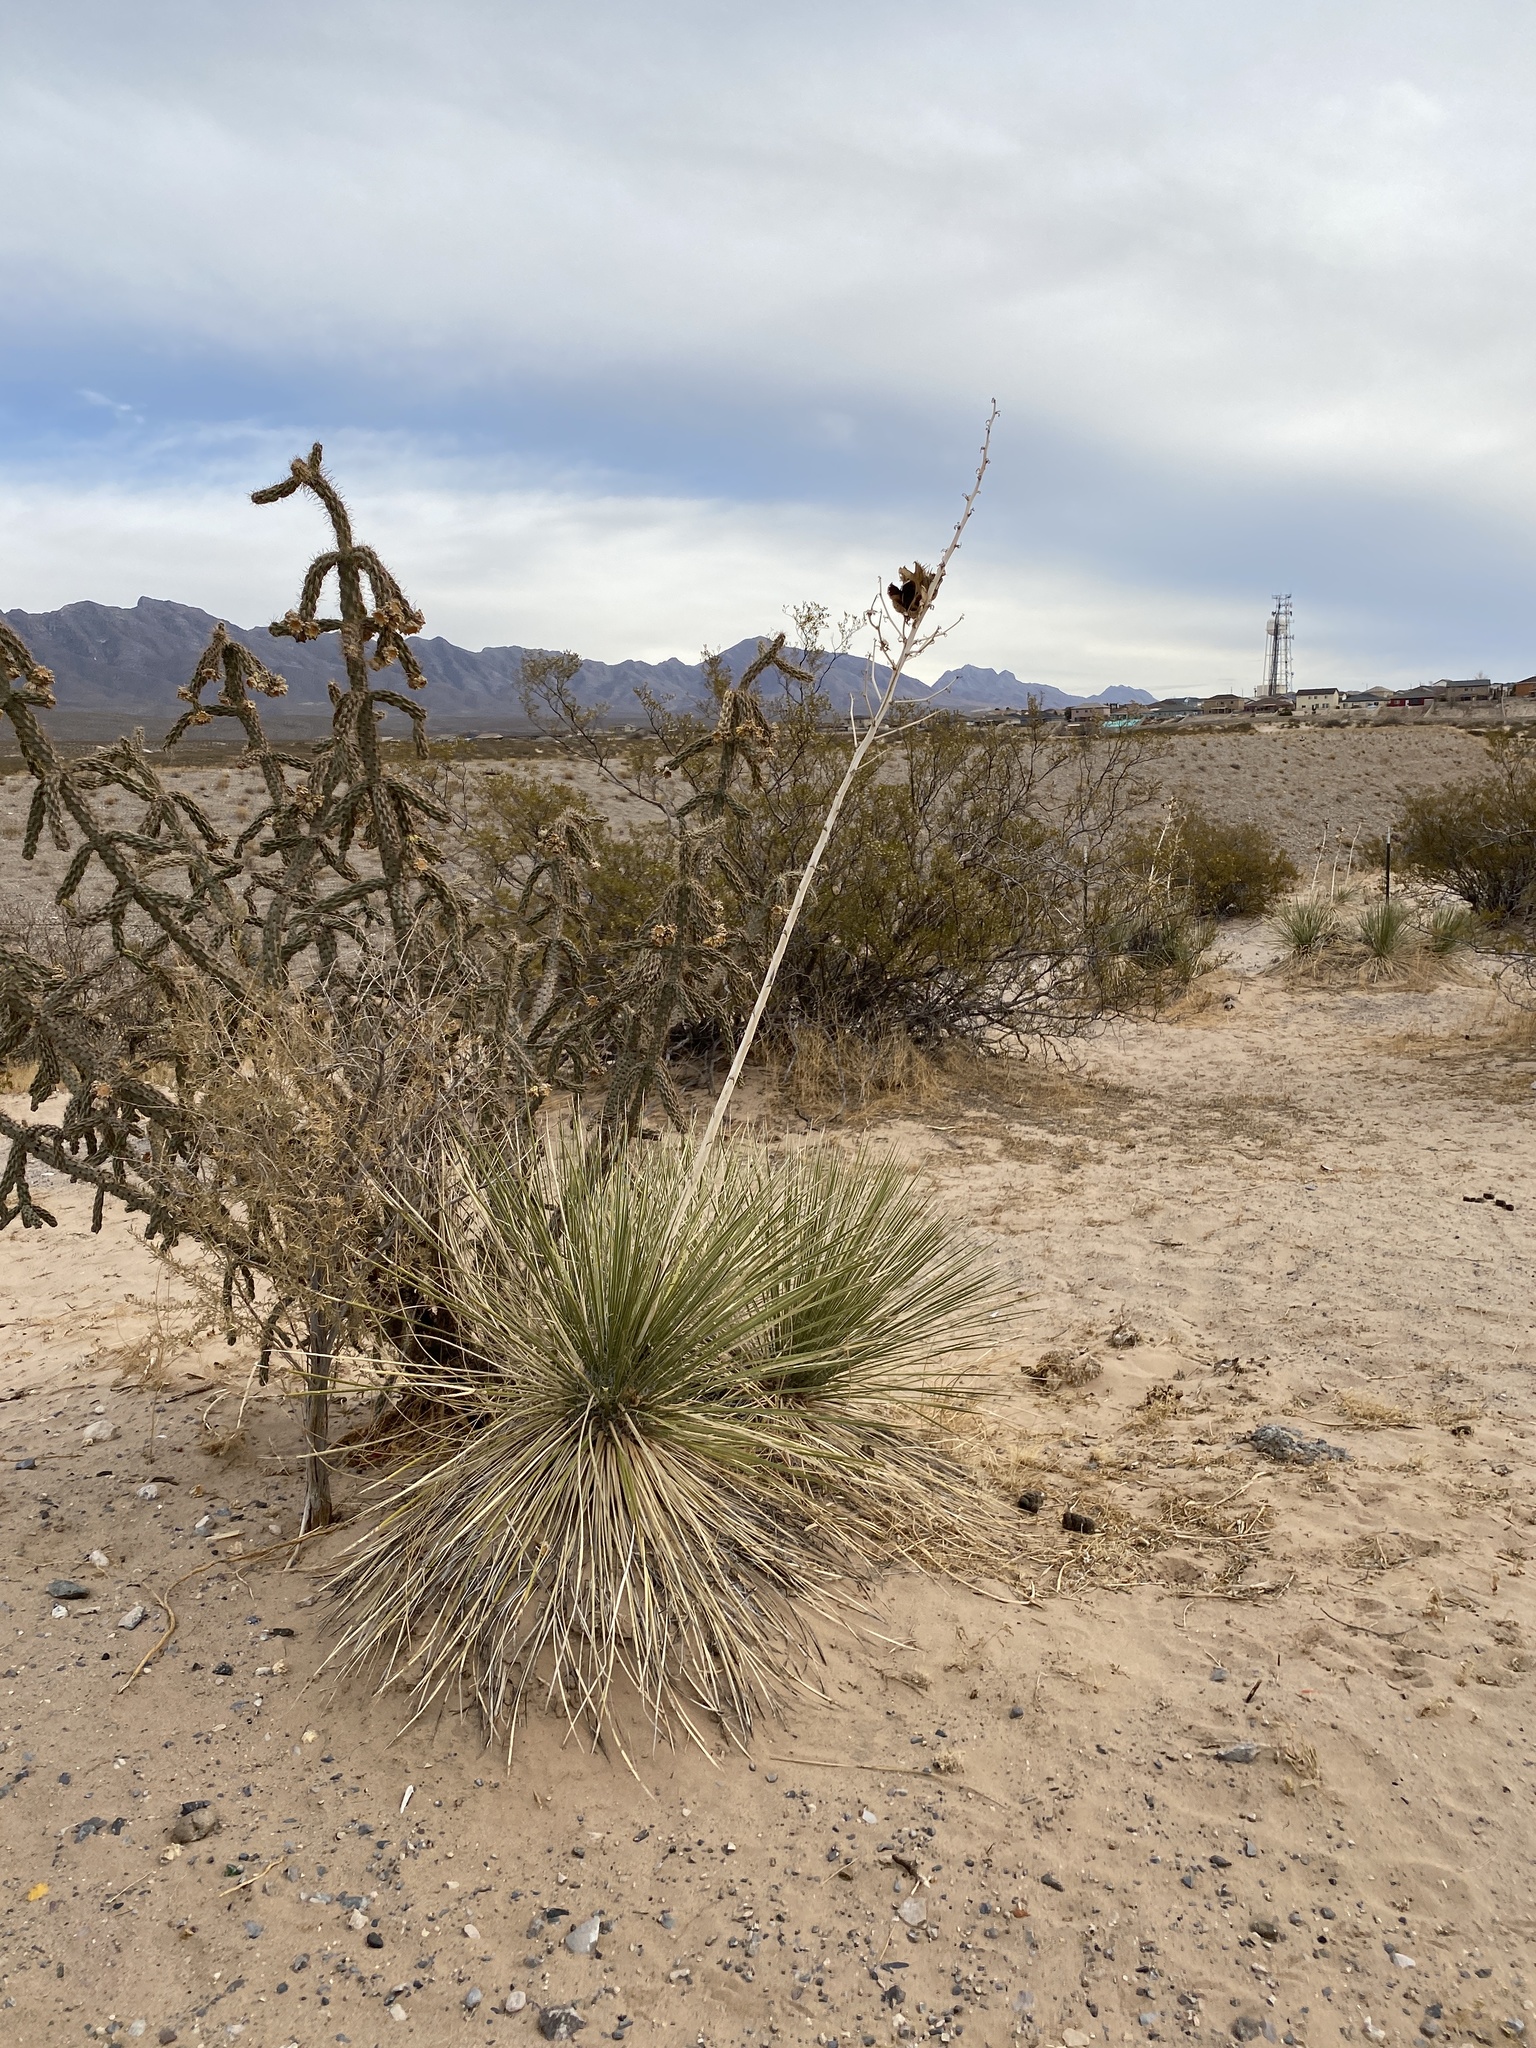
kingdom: Plantae
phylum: Tracheophyta
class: Liliopsida
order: Asparagales
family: Asparagaceae
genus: Yucca
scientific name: Yucca elata
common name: Palmella
